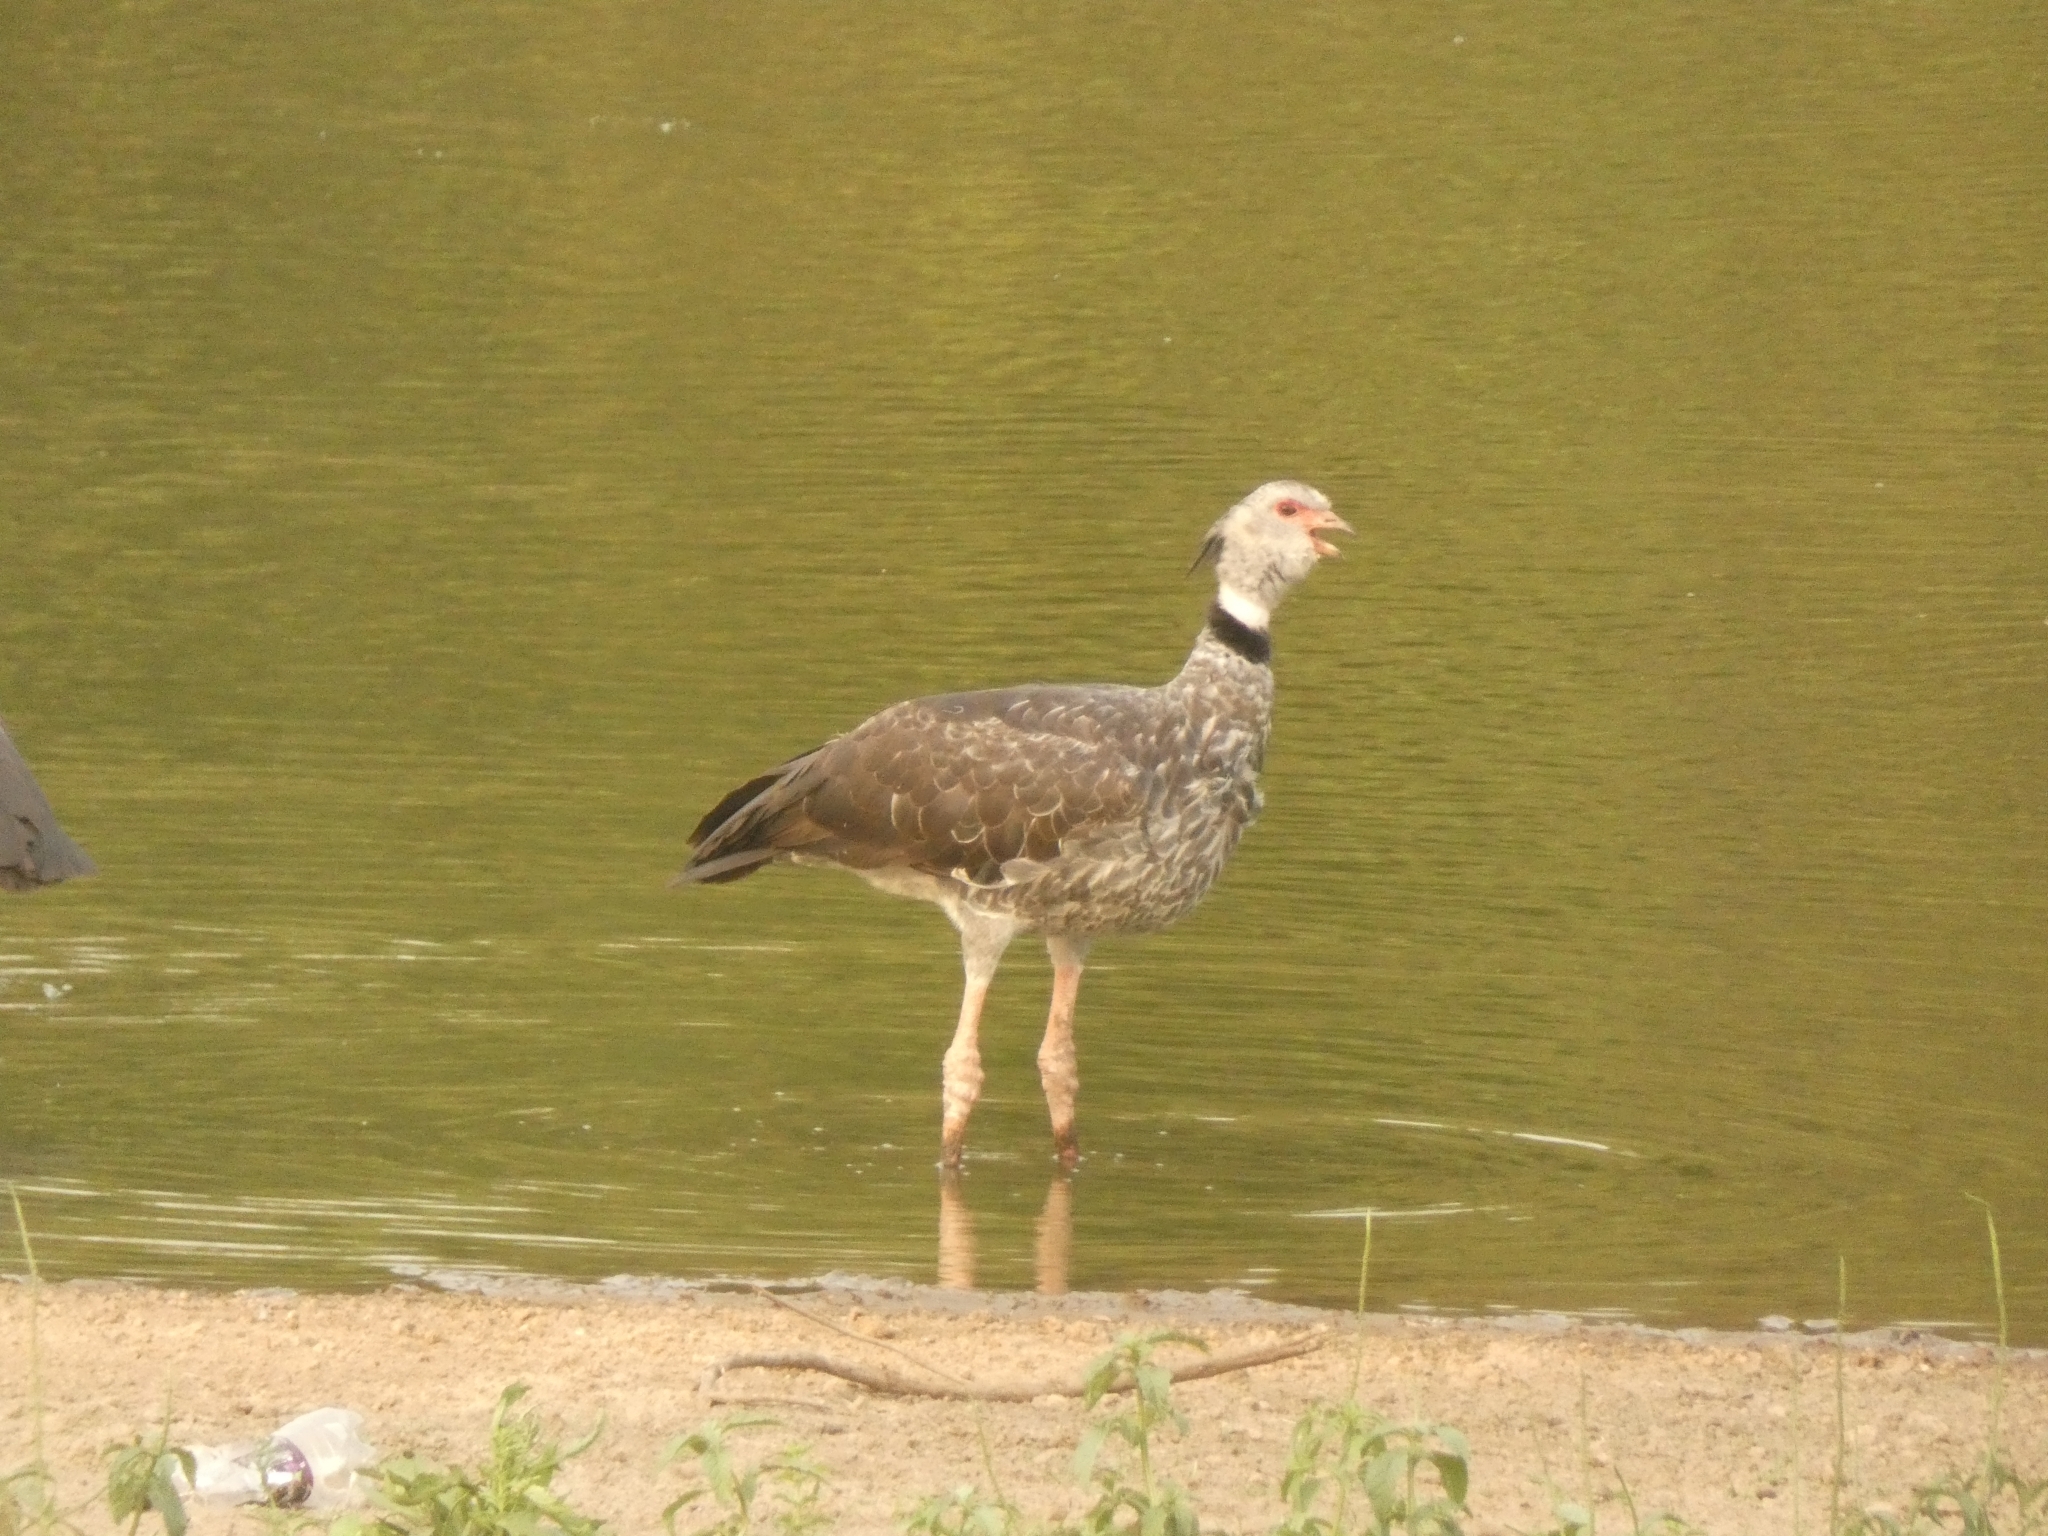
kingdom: Animalia
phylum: Chordata
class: Aves
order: Anseriformes
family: Anhimidae
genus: Chauna
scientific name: Chauna torquata
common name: Southern screamer
